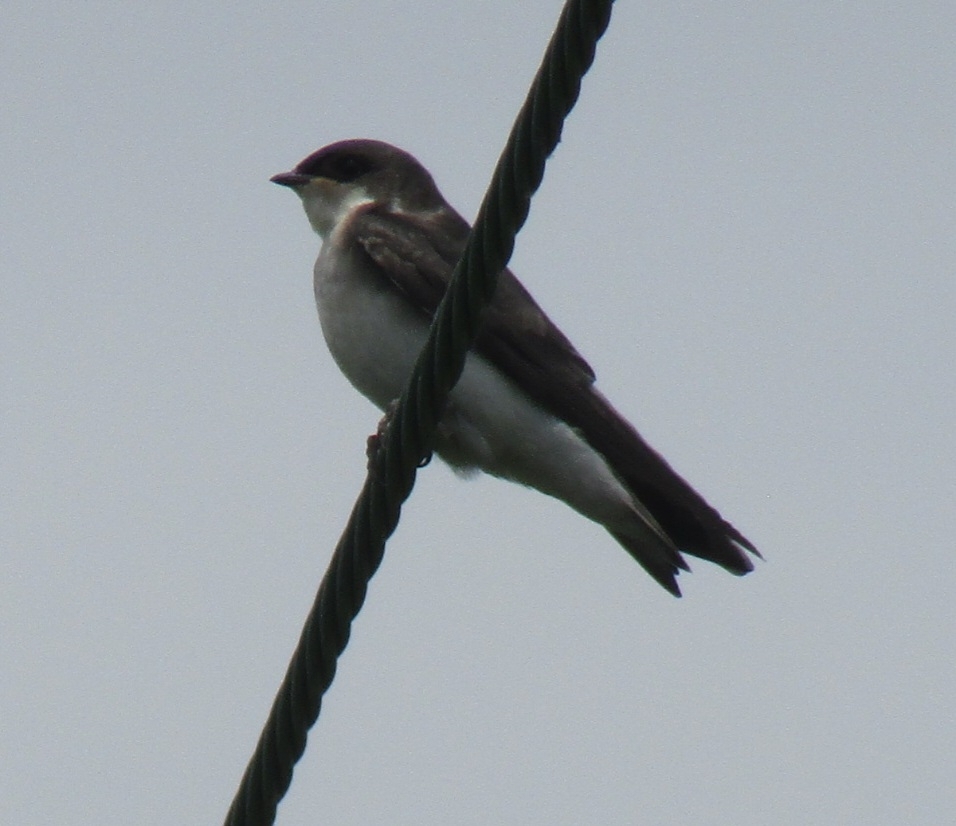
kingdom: Animalia
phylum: Chordata
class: Aves
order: Passeriformes
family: Hirundinidae
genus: Tachycineta
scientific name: Tachycineta bicolor
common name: Tree swallow
